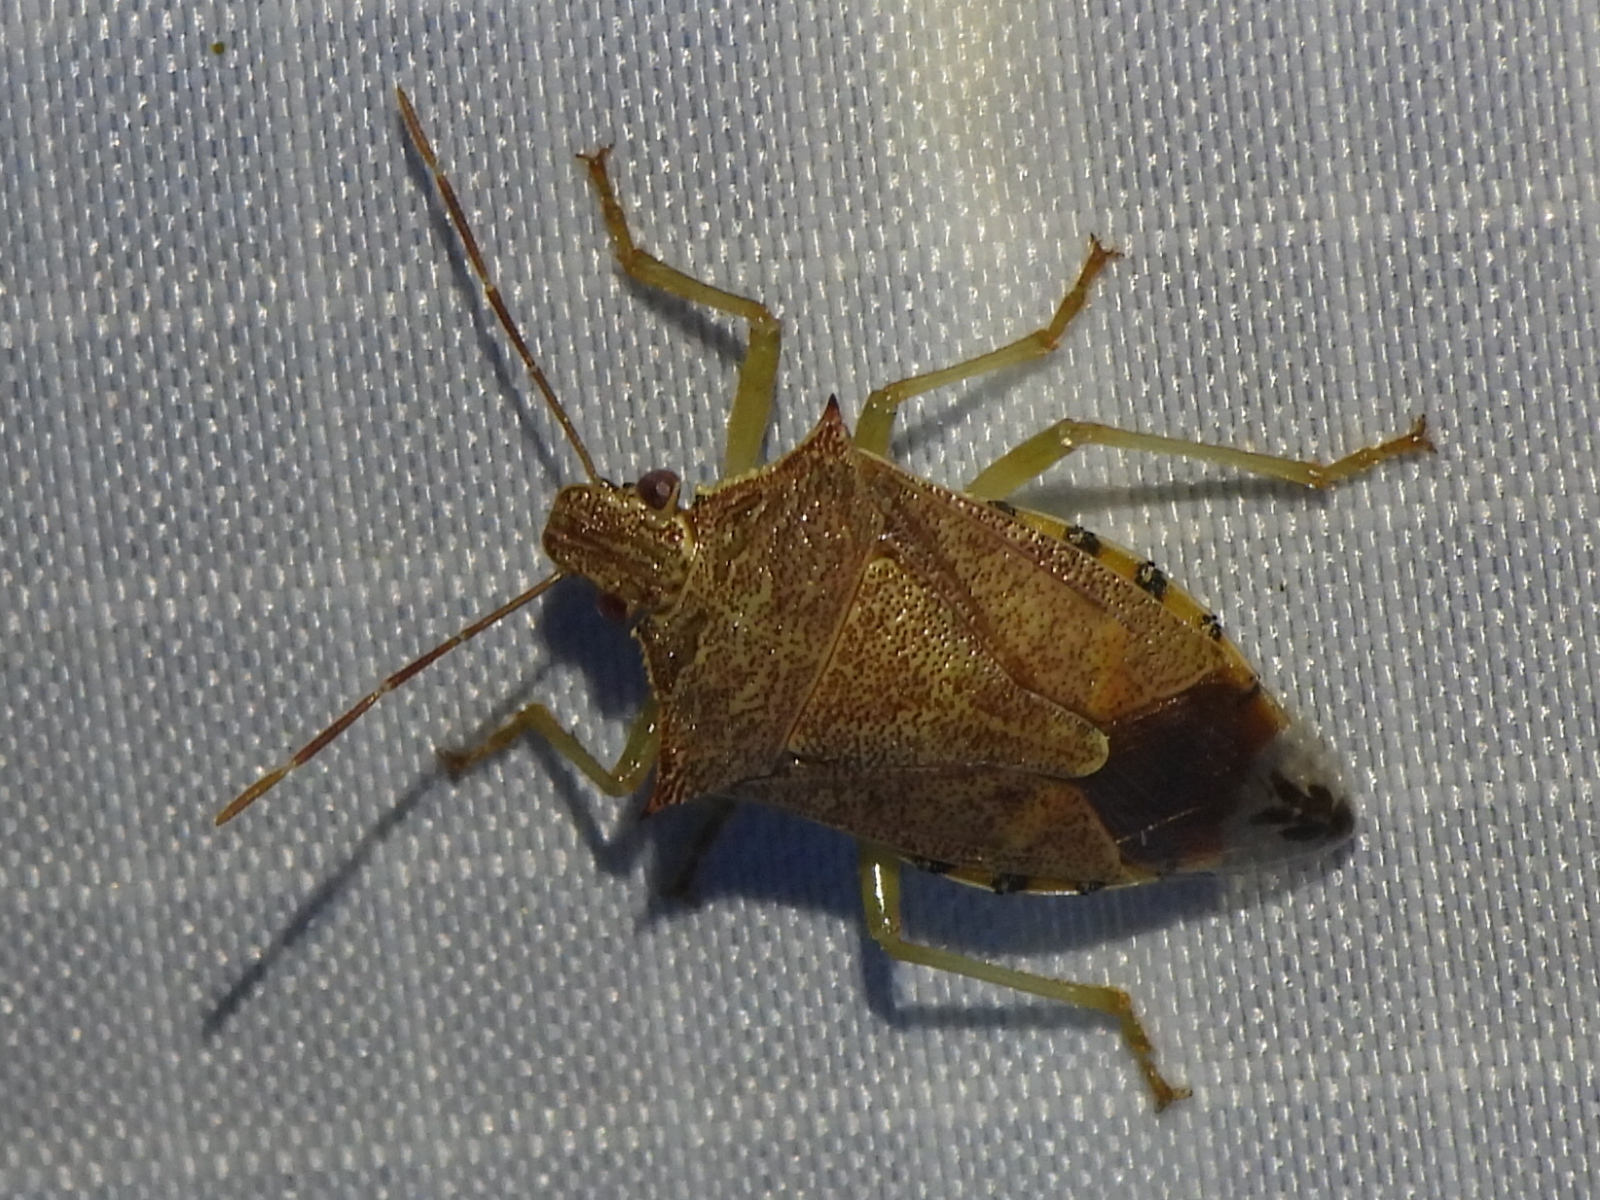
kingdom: Animalia
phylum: Arthropoda
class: Insecta
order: Hemiptera
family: Pentatomidae
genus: Podisus
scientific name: Podisus maculiventris
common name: Spined soldier bug
